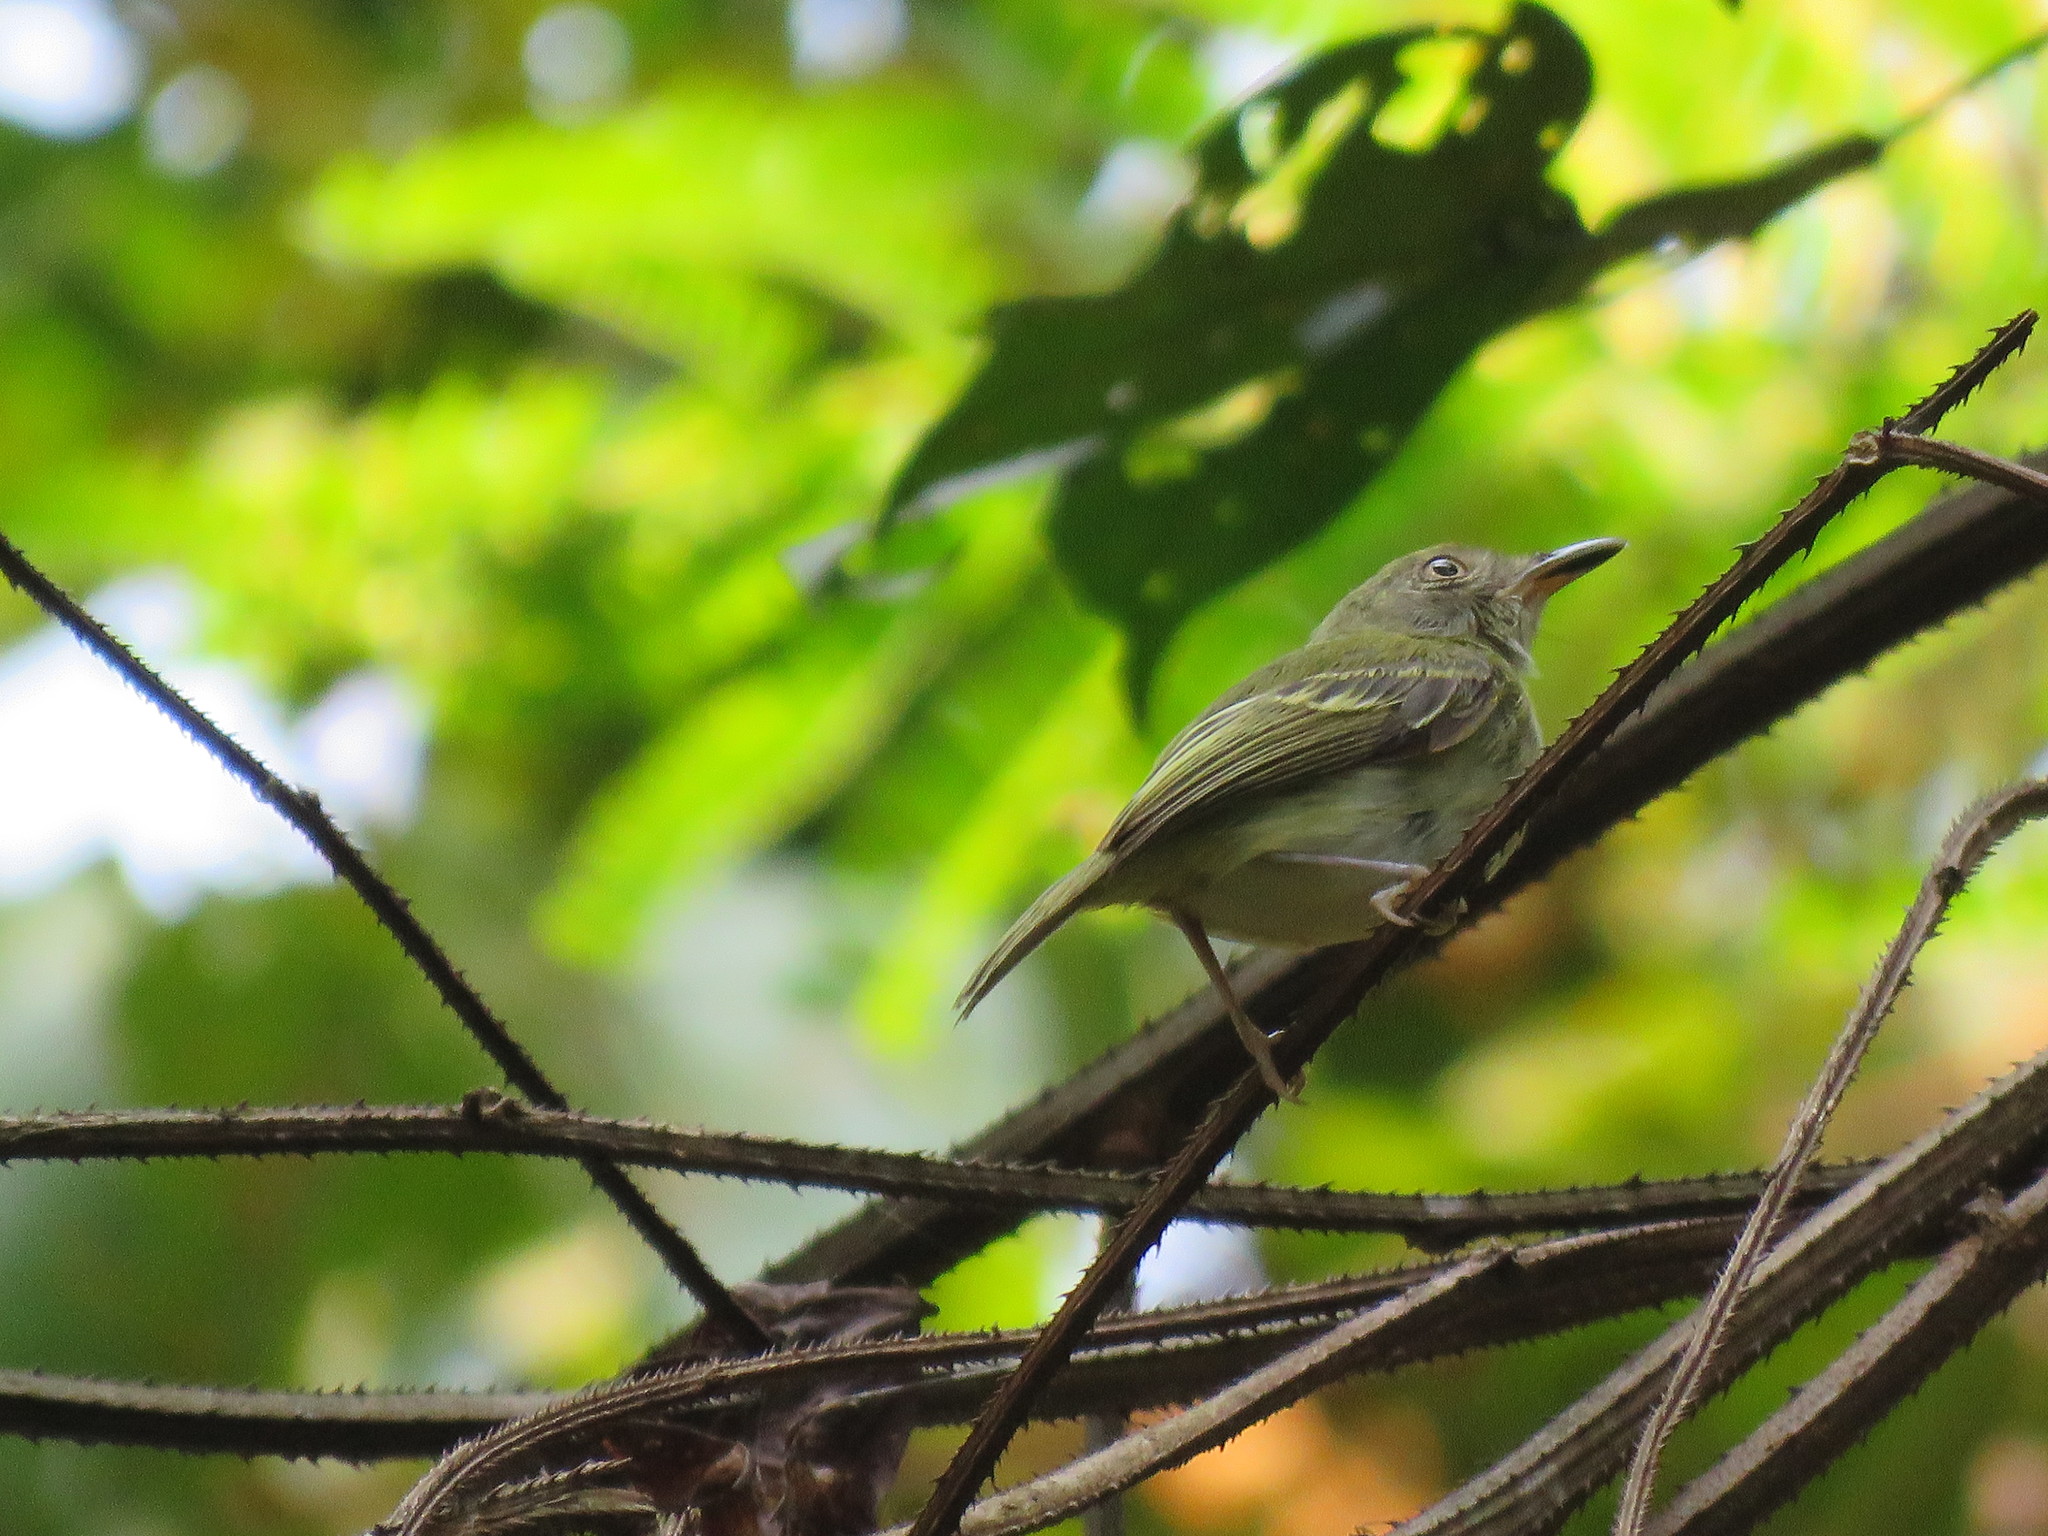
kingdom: Animalia
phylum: Chordata
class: Aves
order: Passeriformes
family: Tyrannidae
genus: Hemitriccus
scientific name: Hemitriccus griseipectus
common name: White-bellied tody-tyrant
